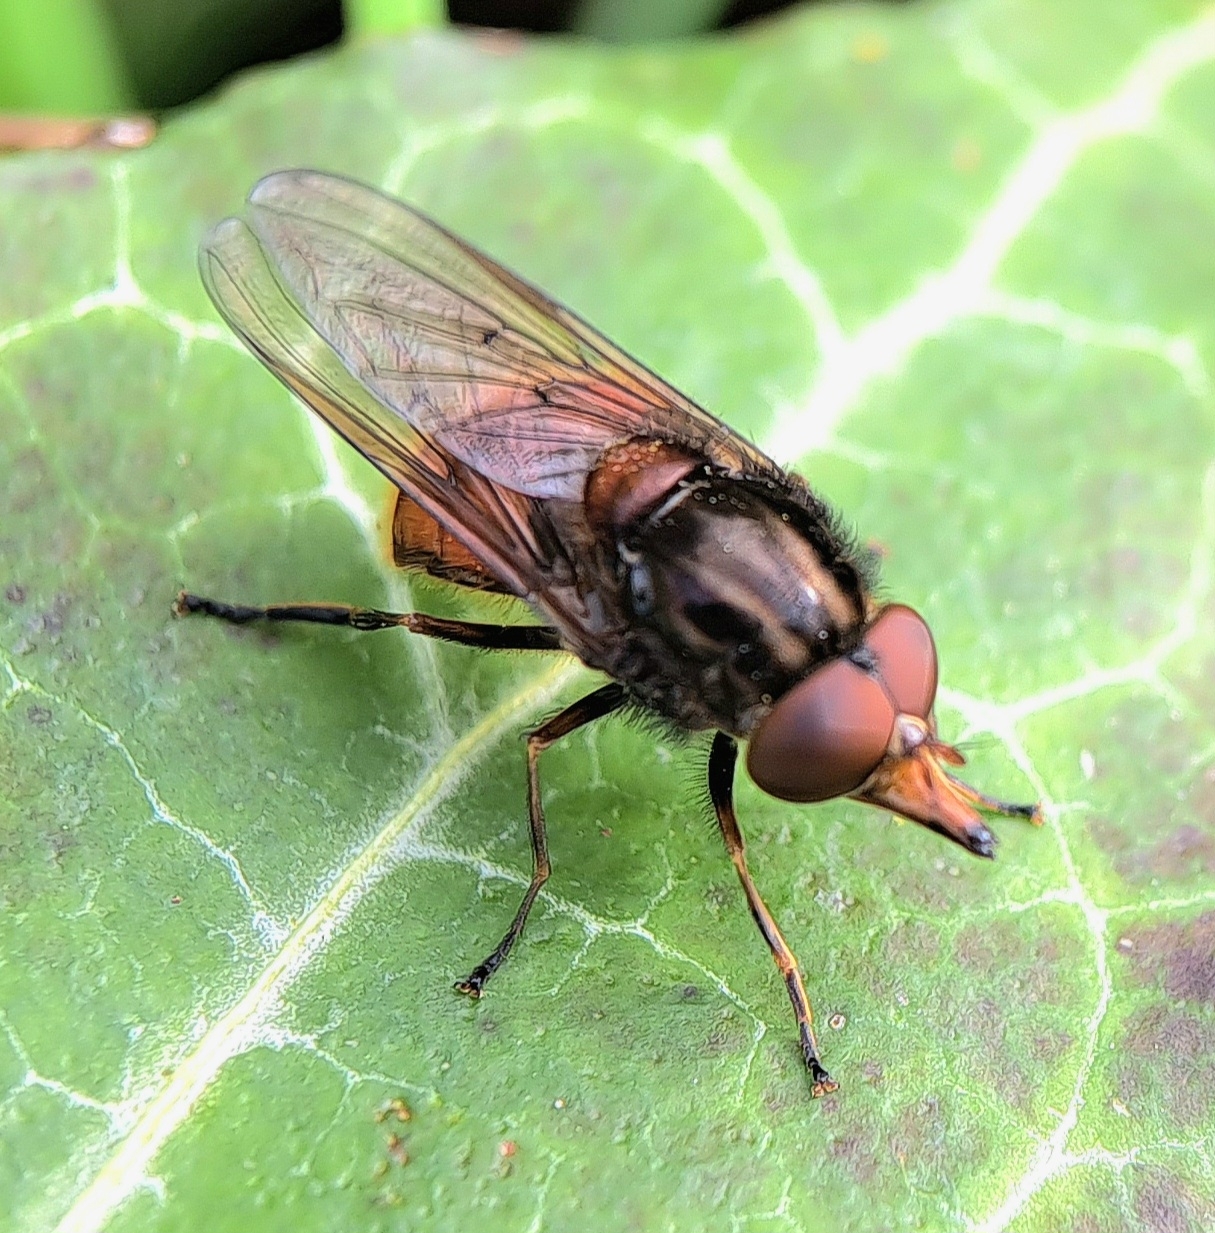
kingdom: Animalia
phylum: Arthropoda
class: Insecta
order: Diptera
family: Syrphidae
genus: Rhingia
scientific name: Rhingia campestris
